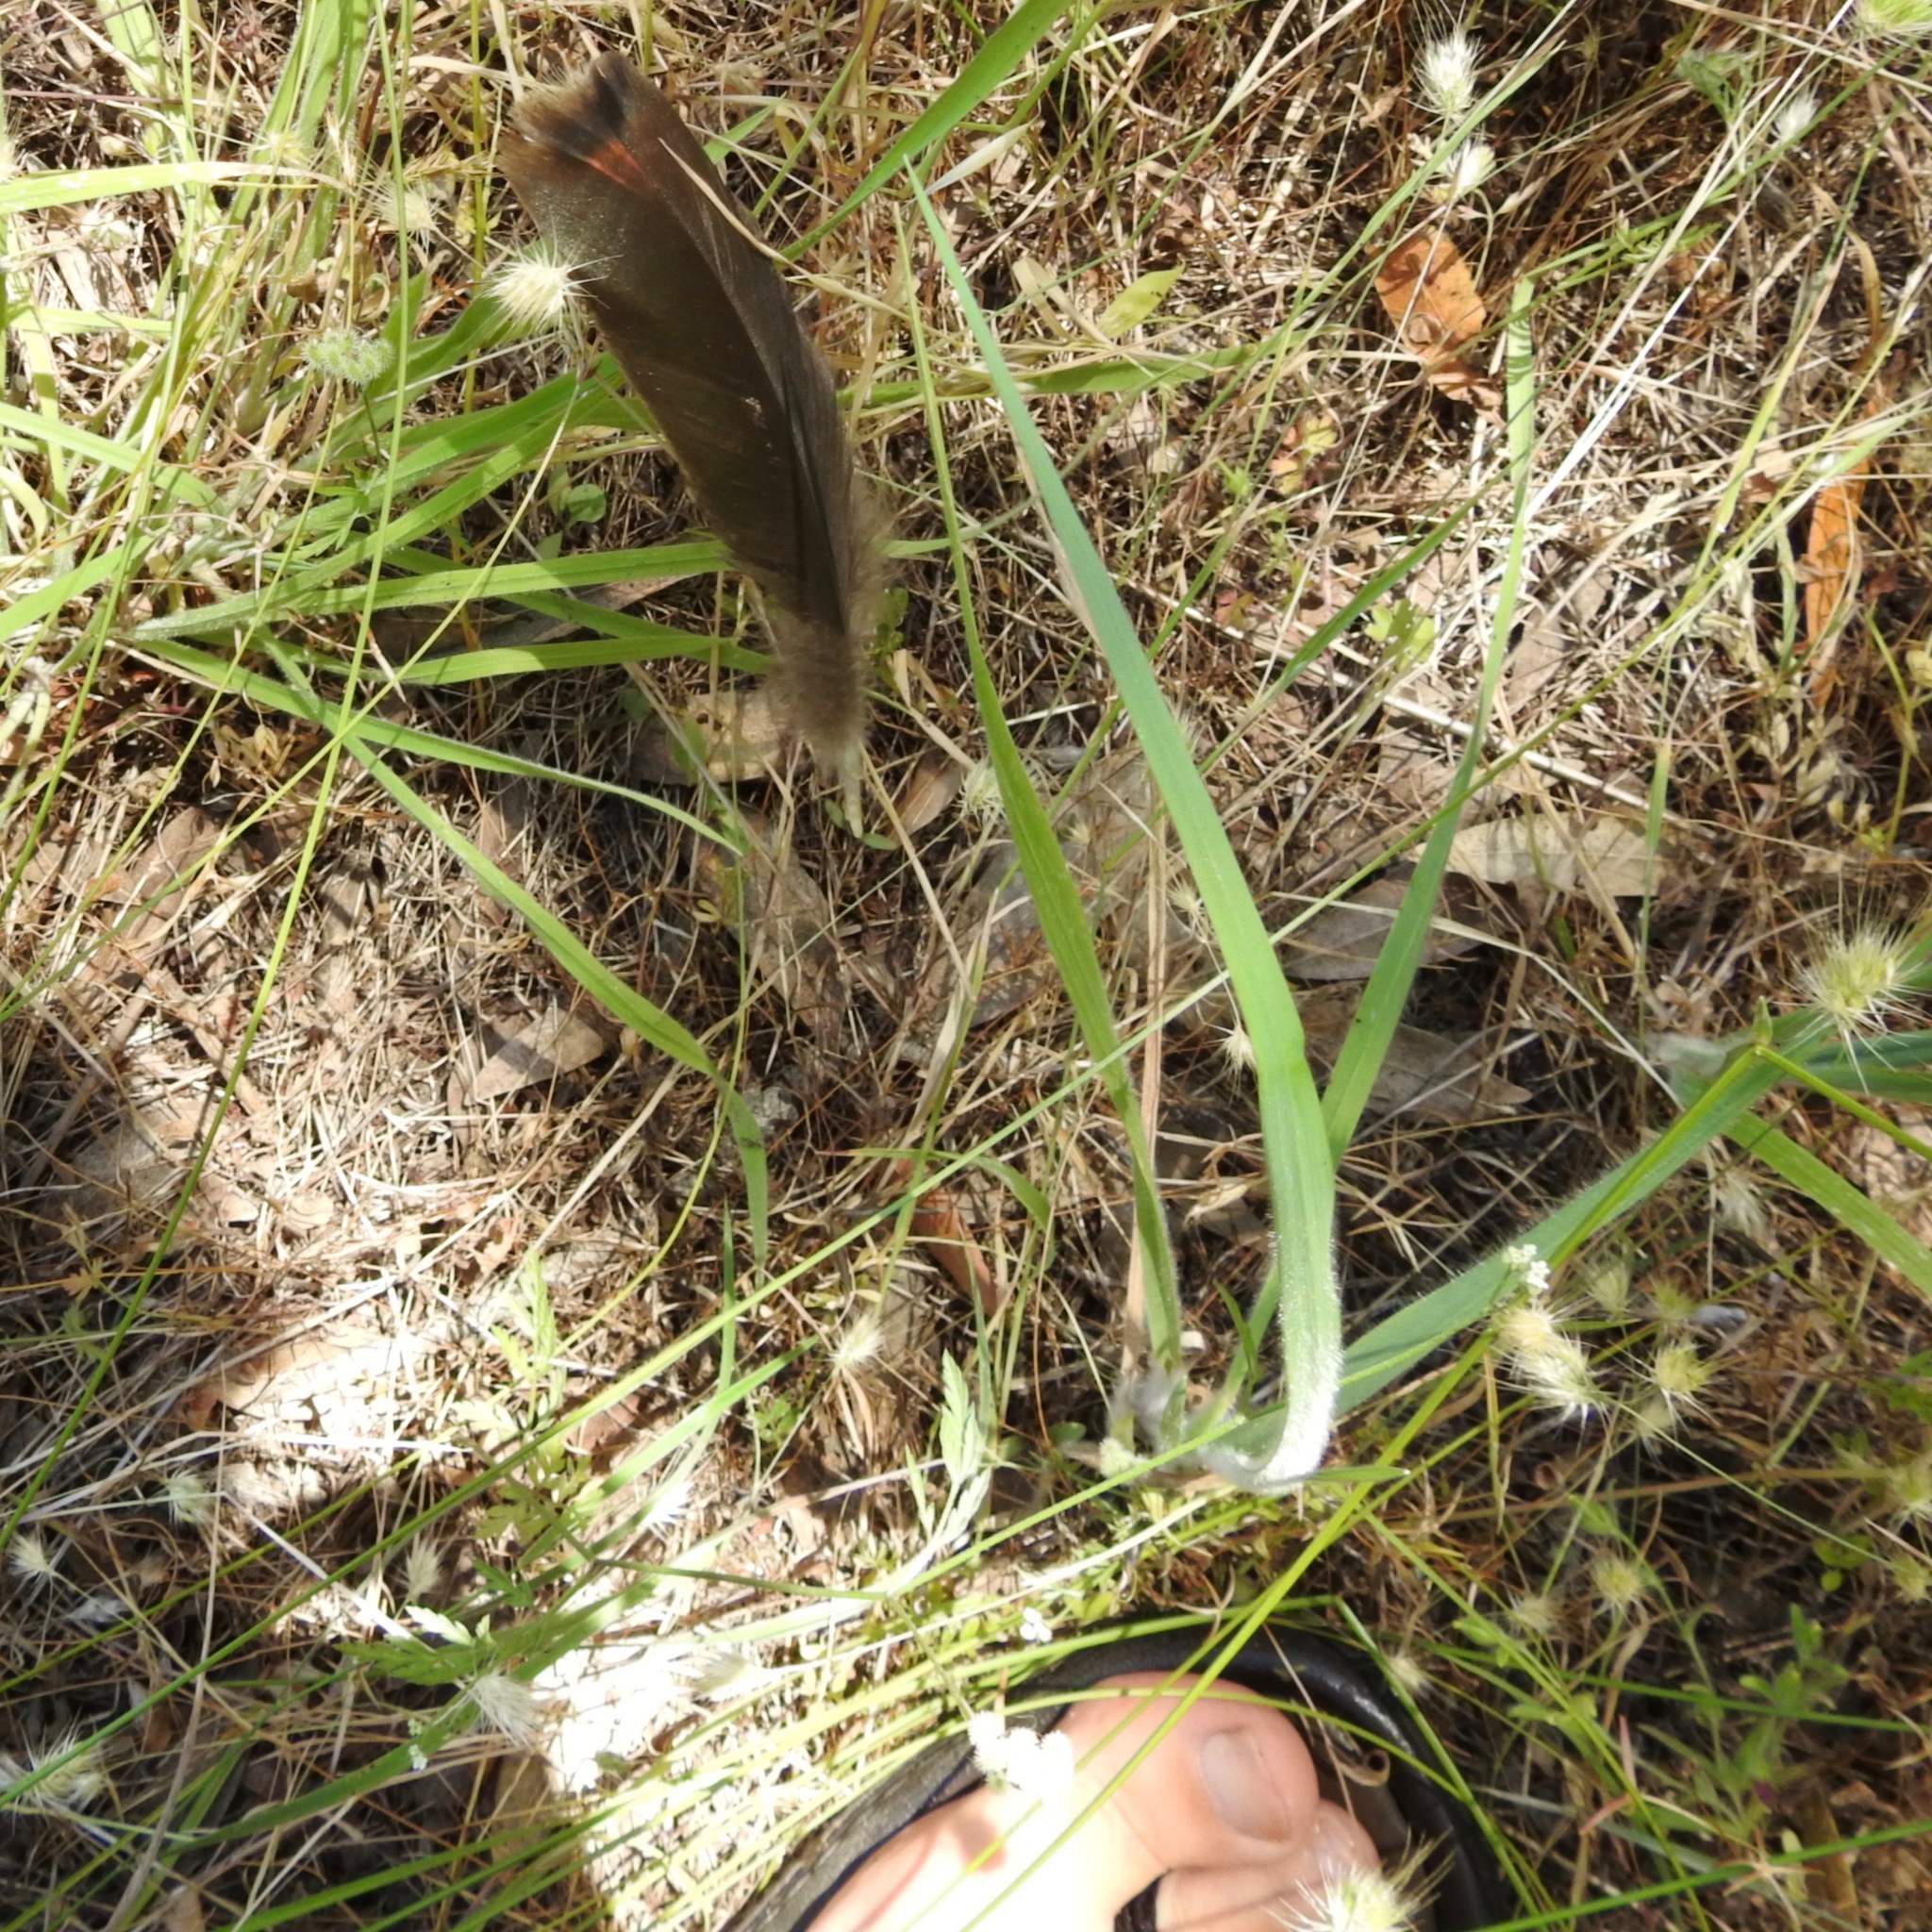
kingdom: Animalia
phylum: Chordata
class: Aves
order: Galliformes
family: Phasianidae
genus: Meleagris
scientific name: Meleagris gallopavo
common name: Wild turkey
